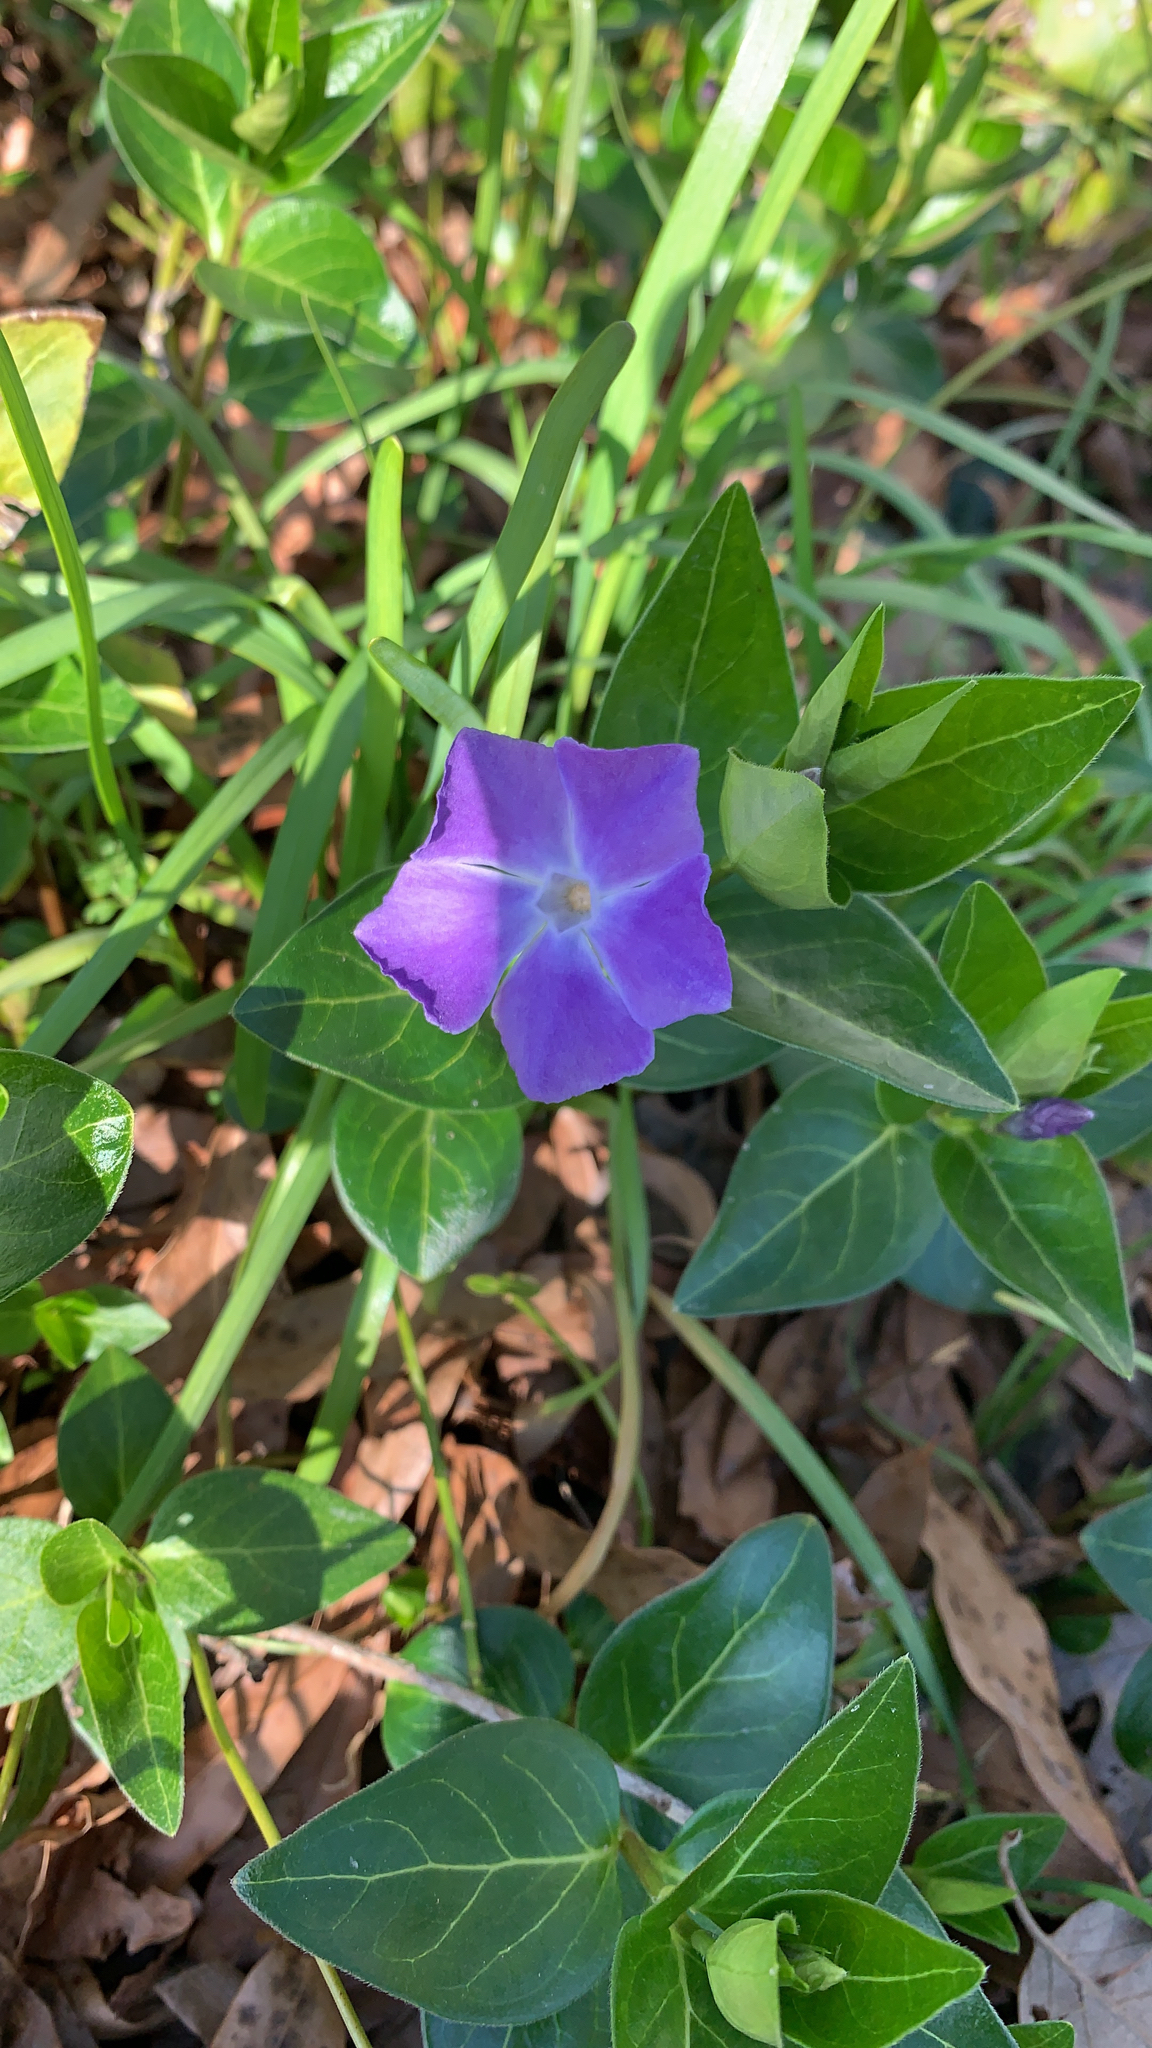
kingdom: Plantae
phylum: Tracheophyta
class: Magnoliopsida
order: Gentianales
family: Apocynaceae
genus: Vinca
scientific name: Vinca major
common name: Greater periwinkle
